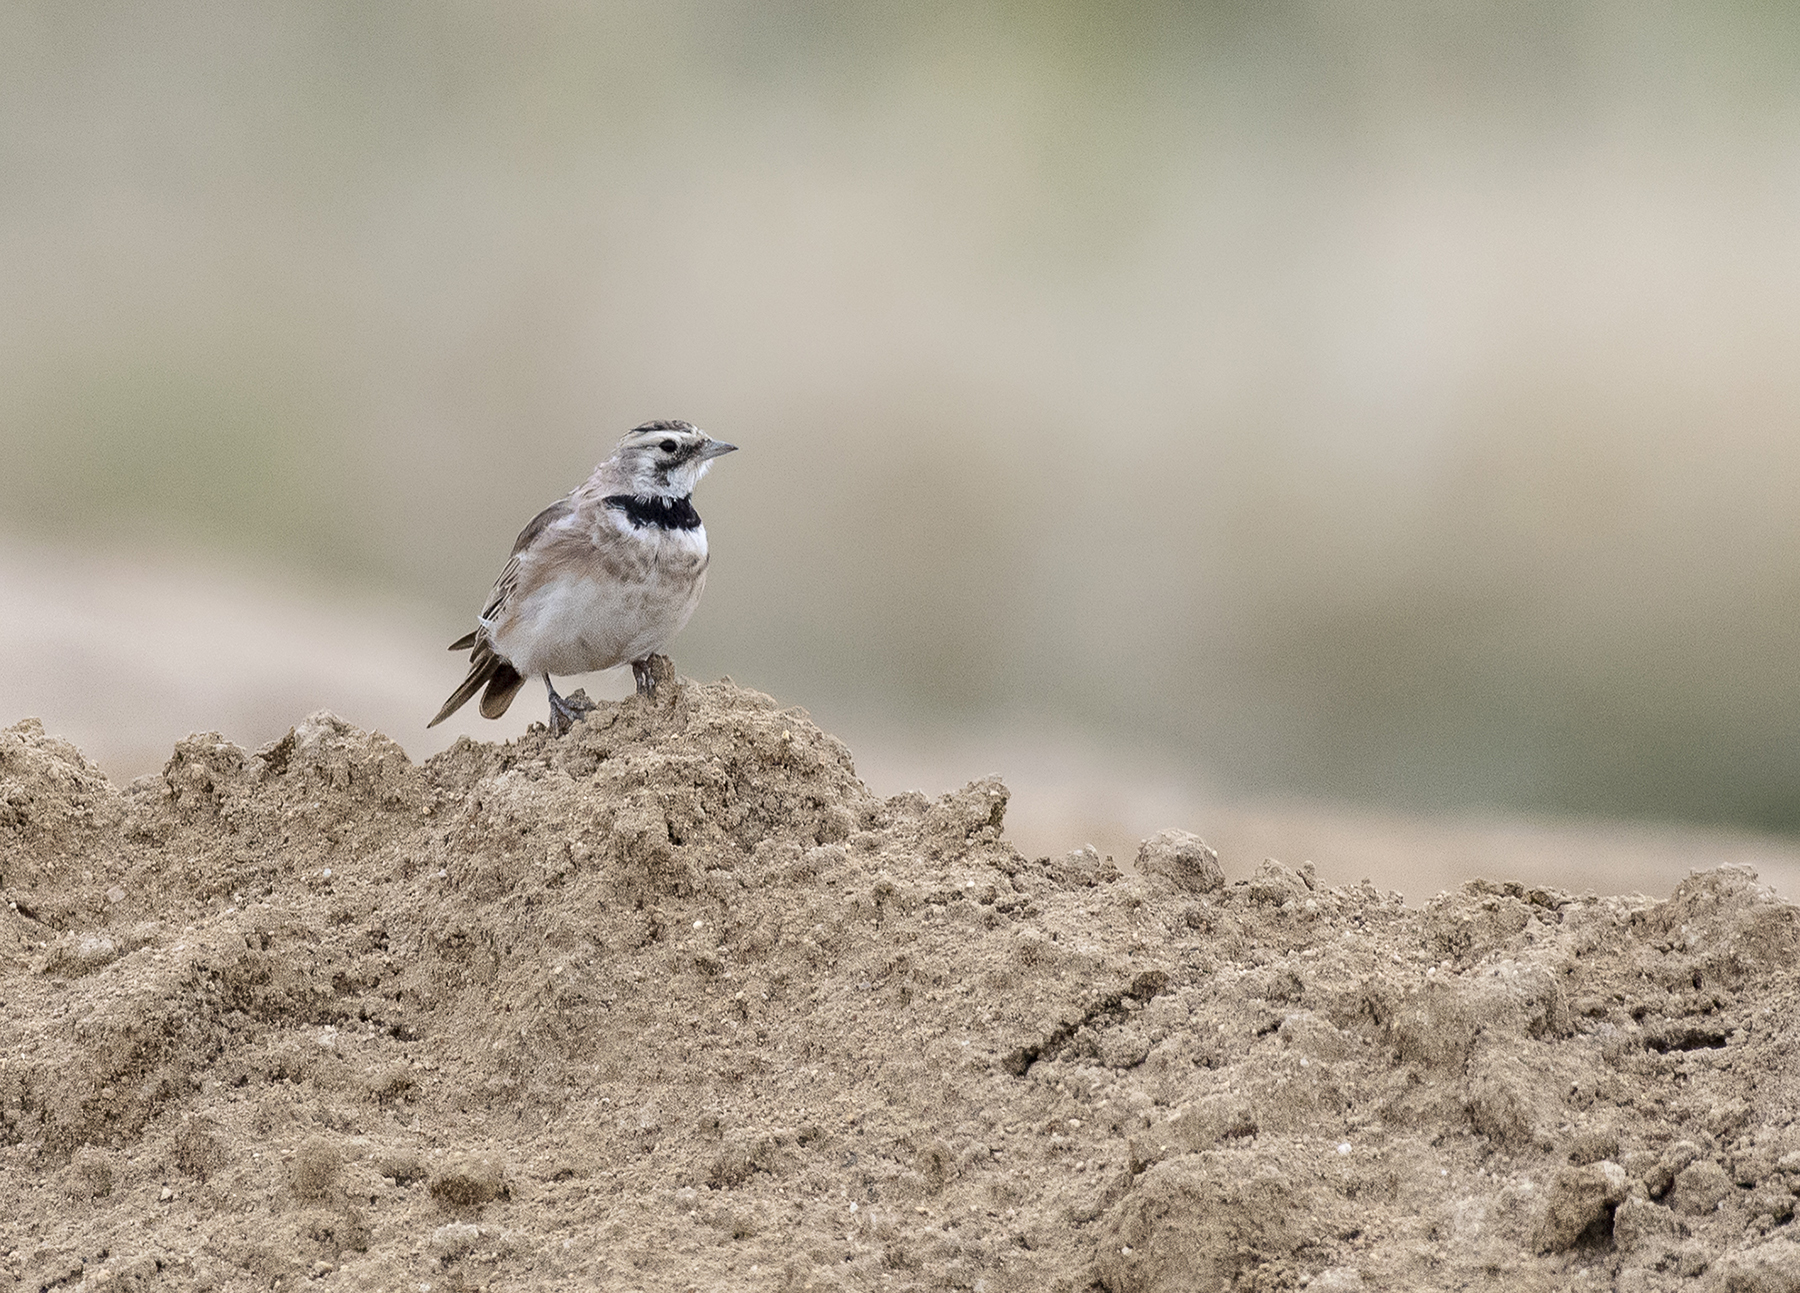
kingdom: Animalia
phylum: Chordata
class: Aves
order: Passeriformes
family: Alaudidae
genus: Eremophila
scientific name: Eremophila alpestris
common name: Horned lark
